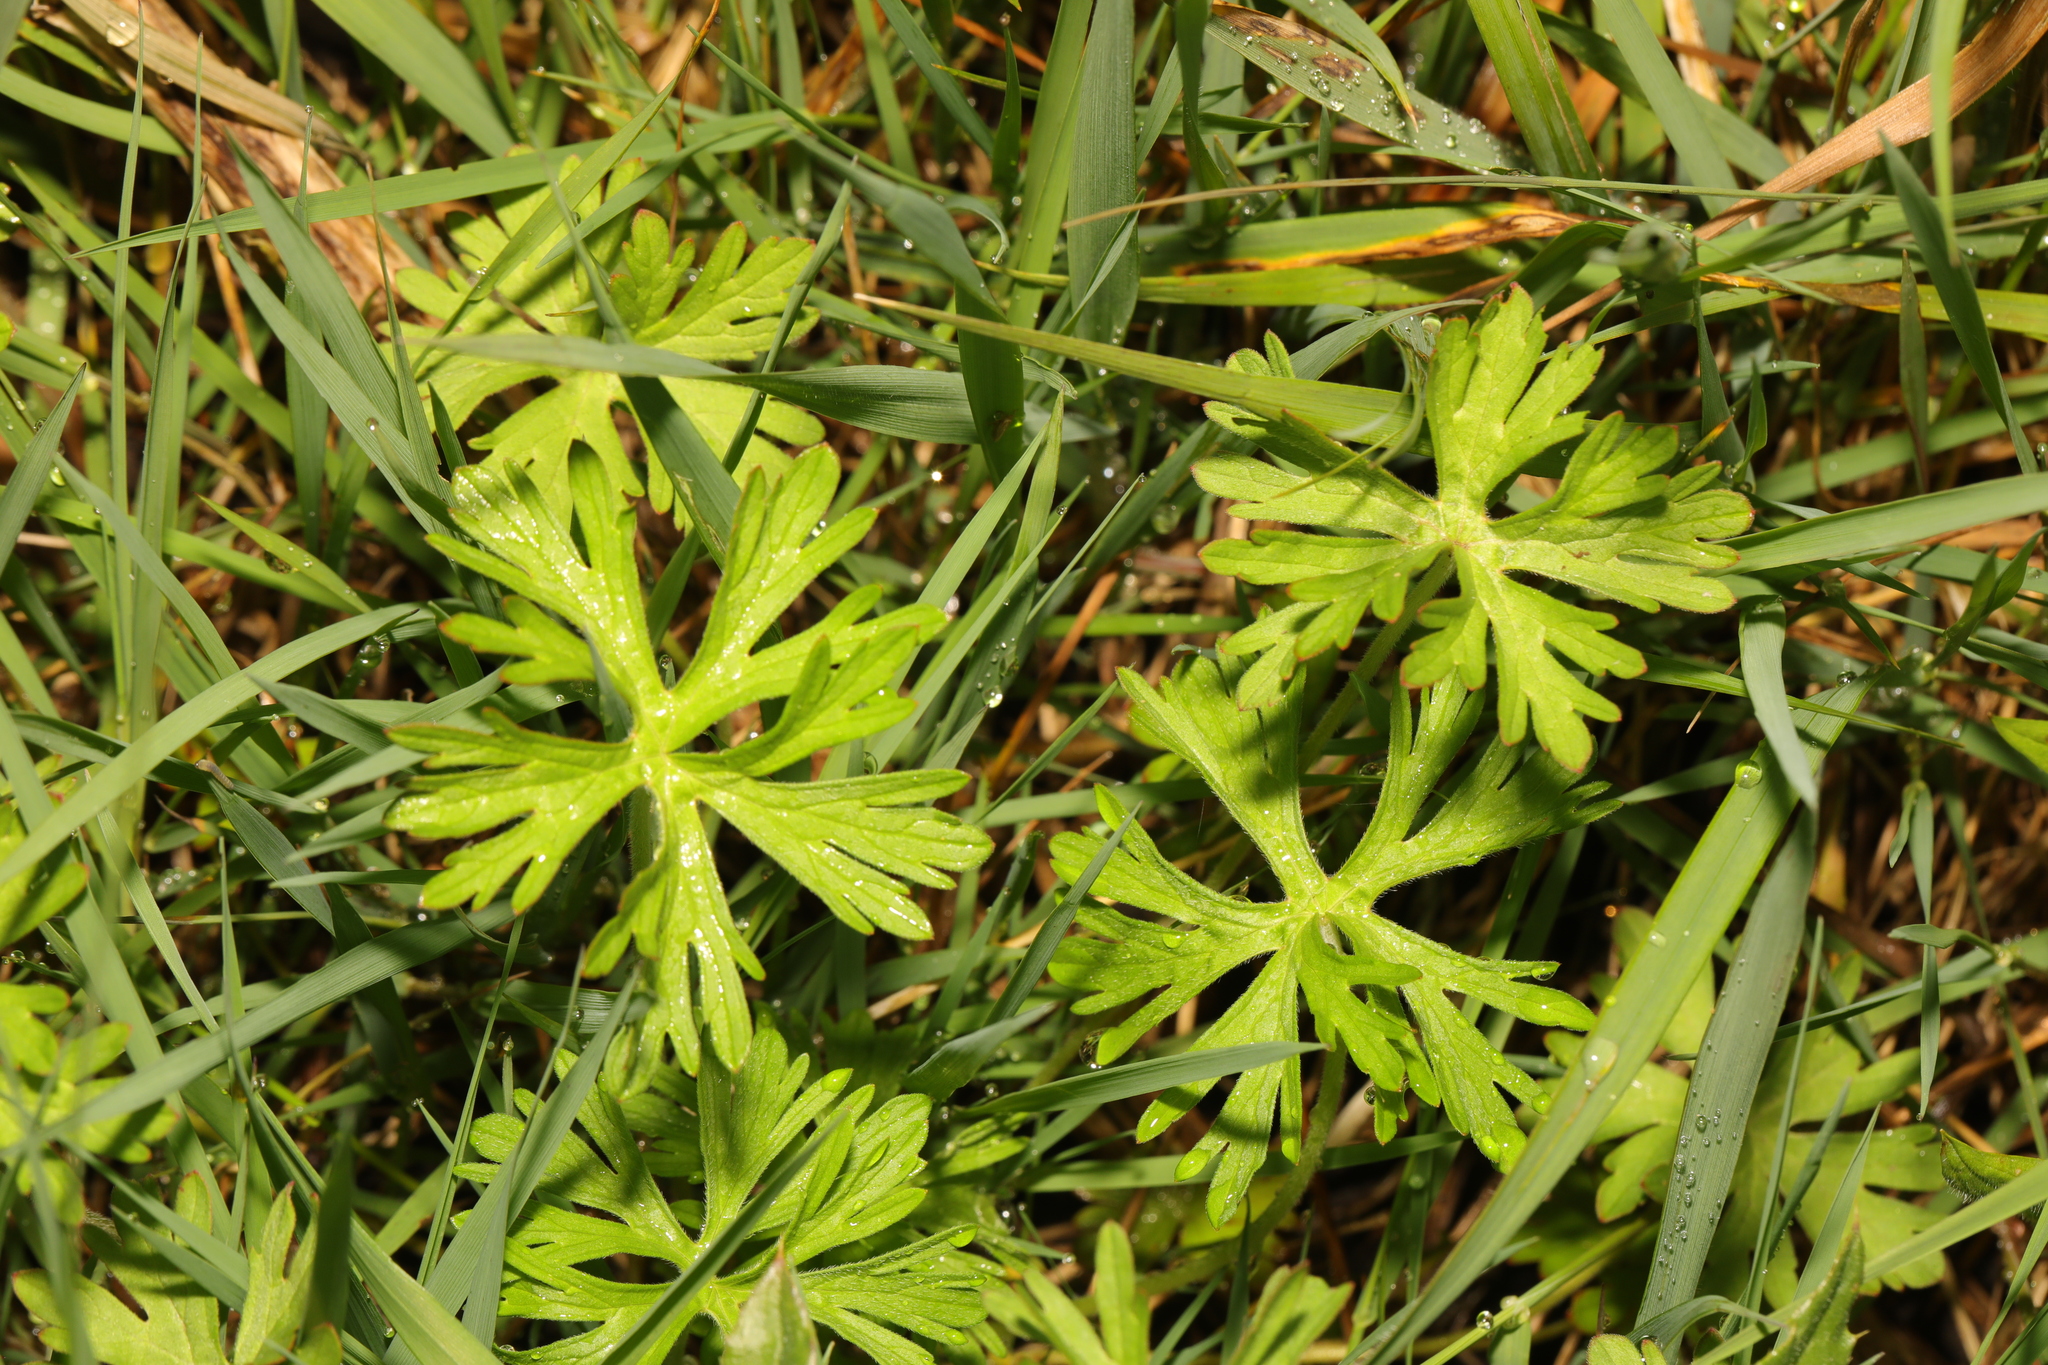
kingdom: Plantae
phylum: Tracheophyta
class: Magnoliopsida
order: Geraniales
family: Geraniaceae
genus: Geranium
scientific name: Geranium dissectum
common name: Cut-leaved crane's-bill
